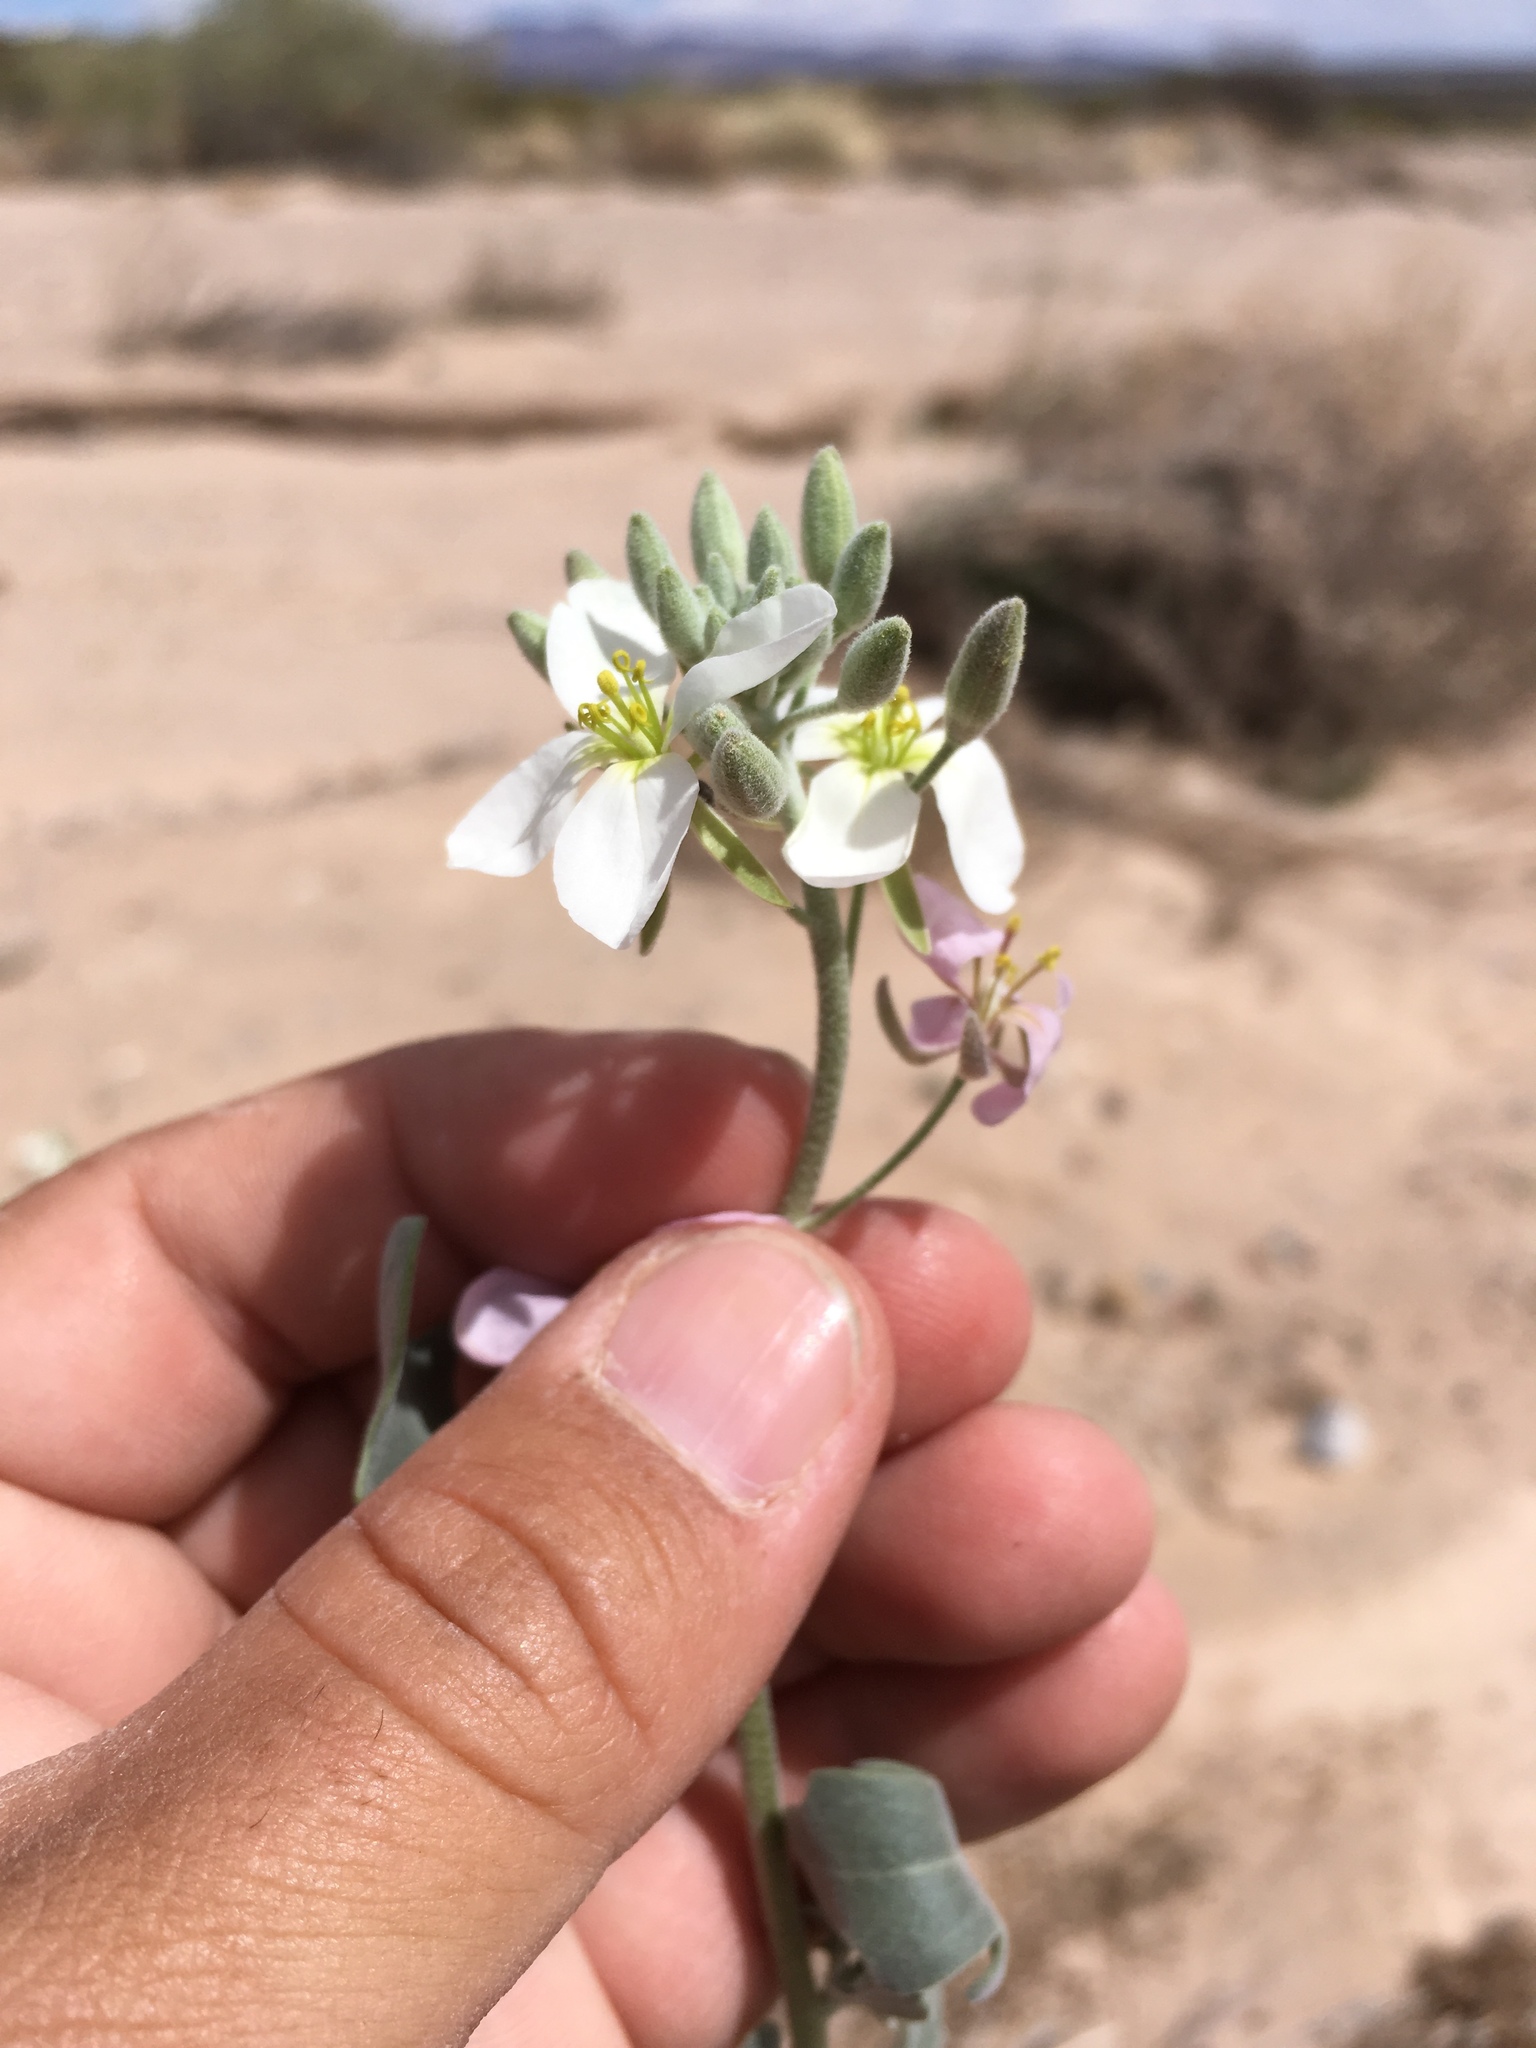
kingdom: Plantae
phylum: Tracheophyta
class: Magnoliopsida
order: Brassicales
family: Brassicaceae
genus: Nerisyrenia
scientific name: Nerisyrenia camporum
